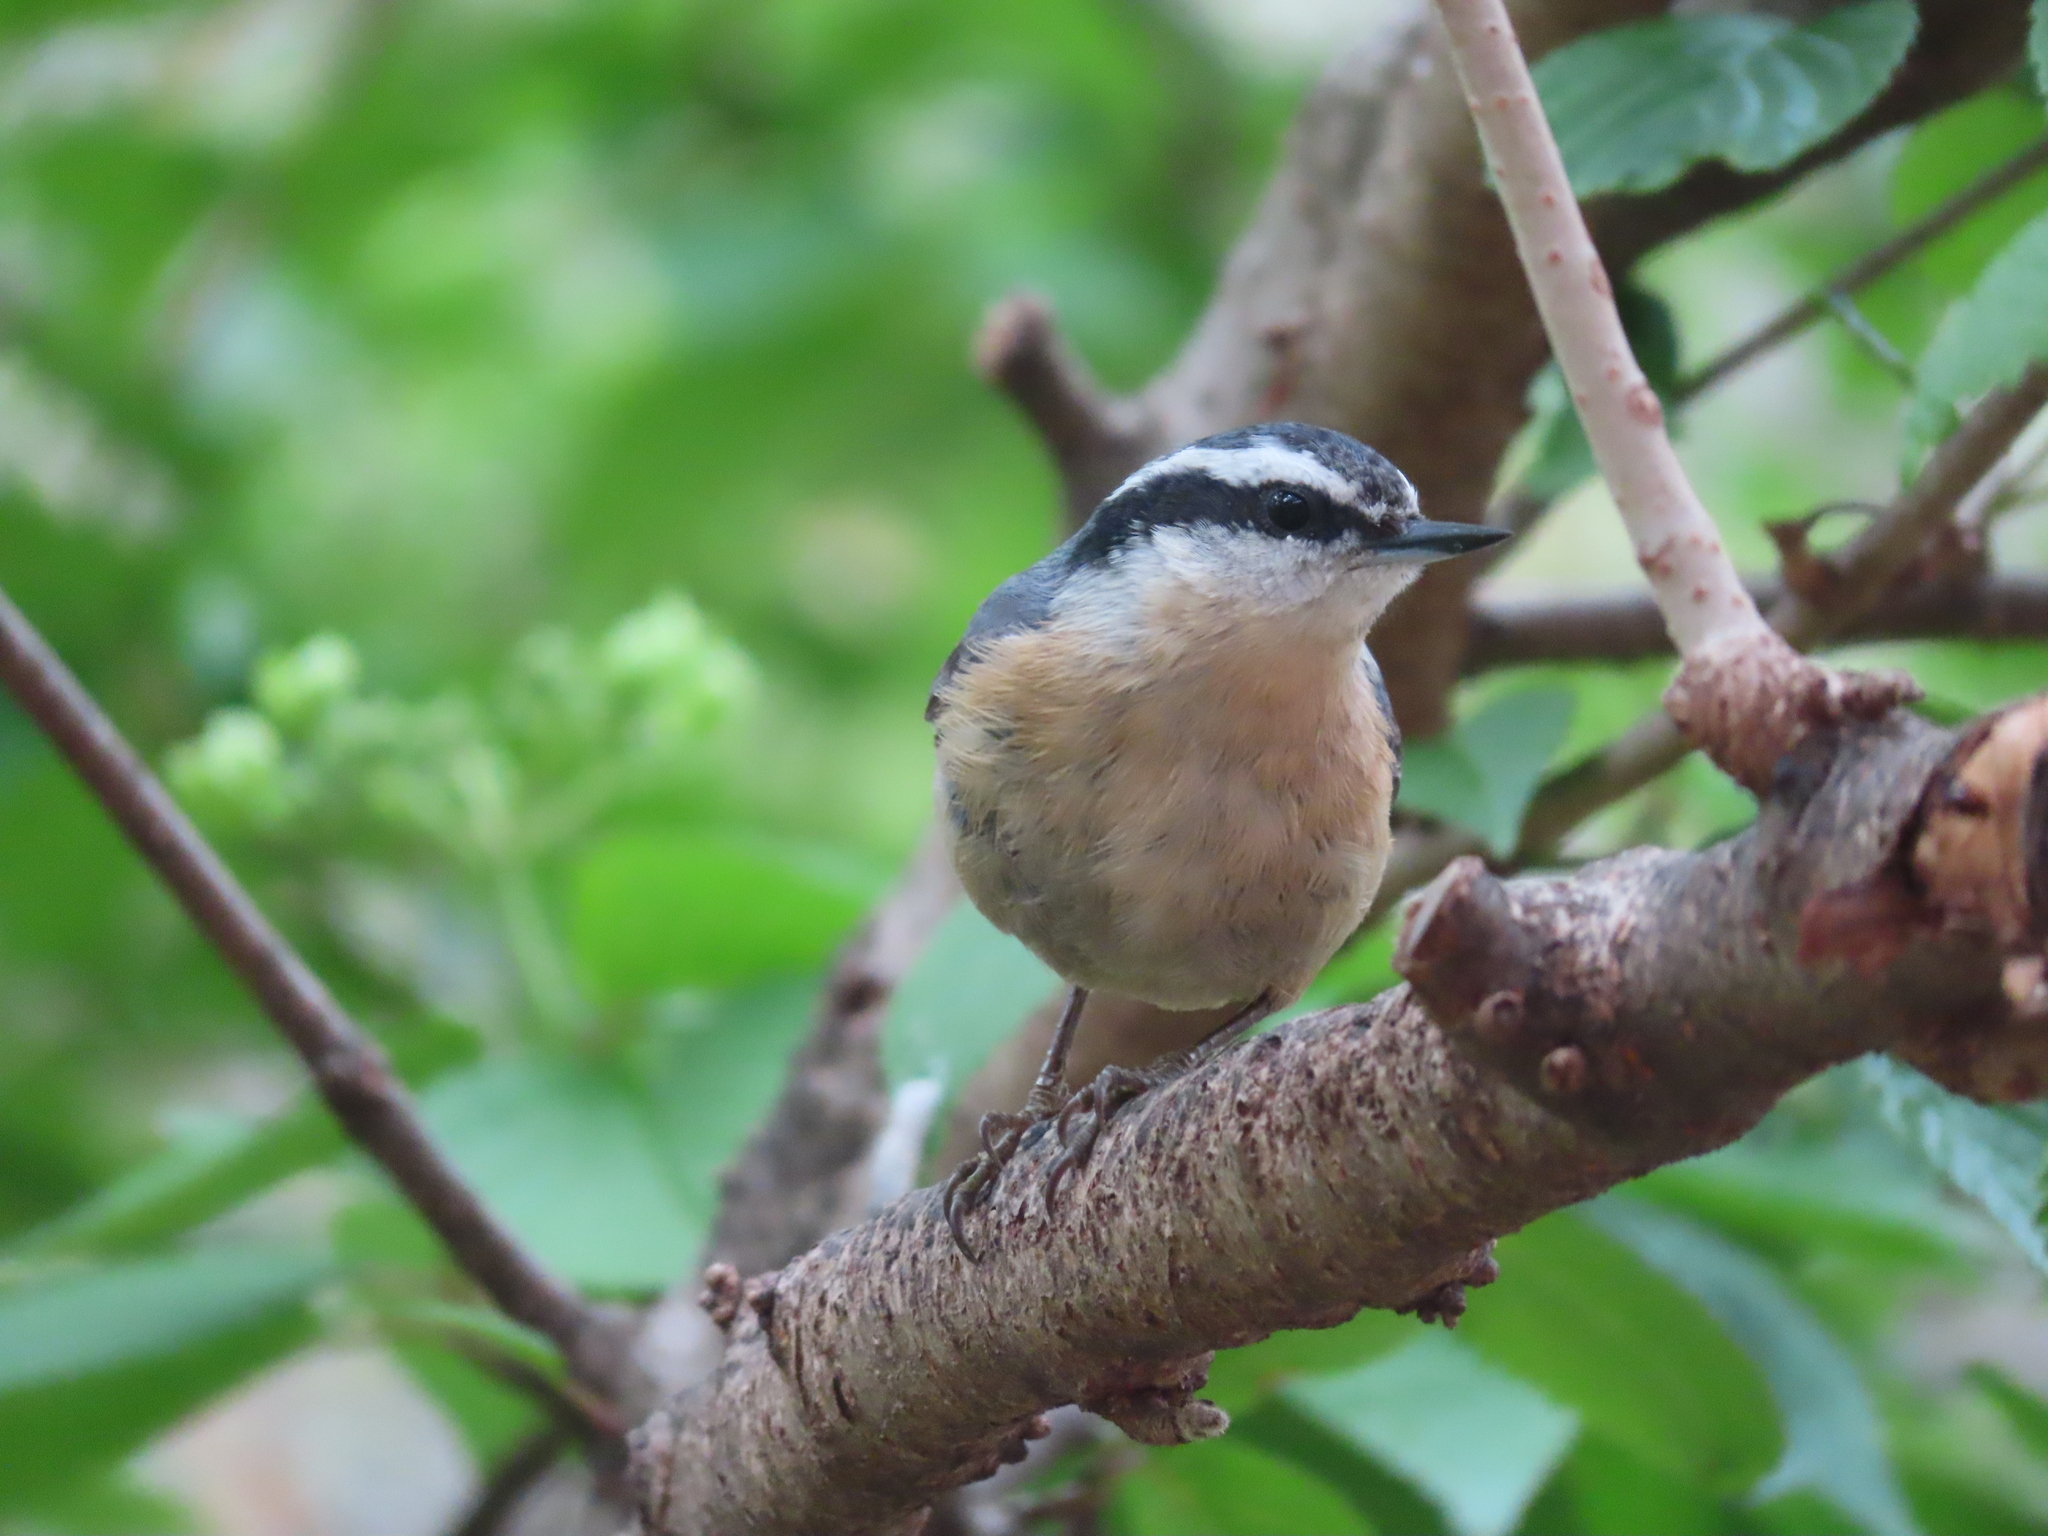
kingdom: Animalia
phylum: Chordata
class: Aves
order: Passeriformes
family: Sittidae
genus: Sitta
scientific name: Sitta canadensis
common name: Red-breasted nuthatch
